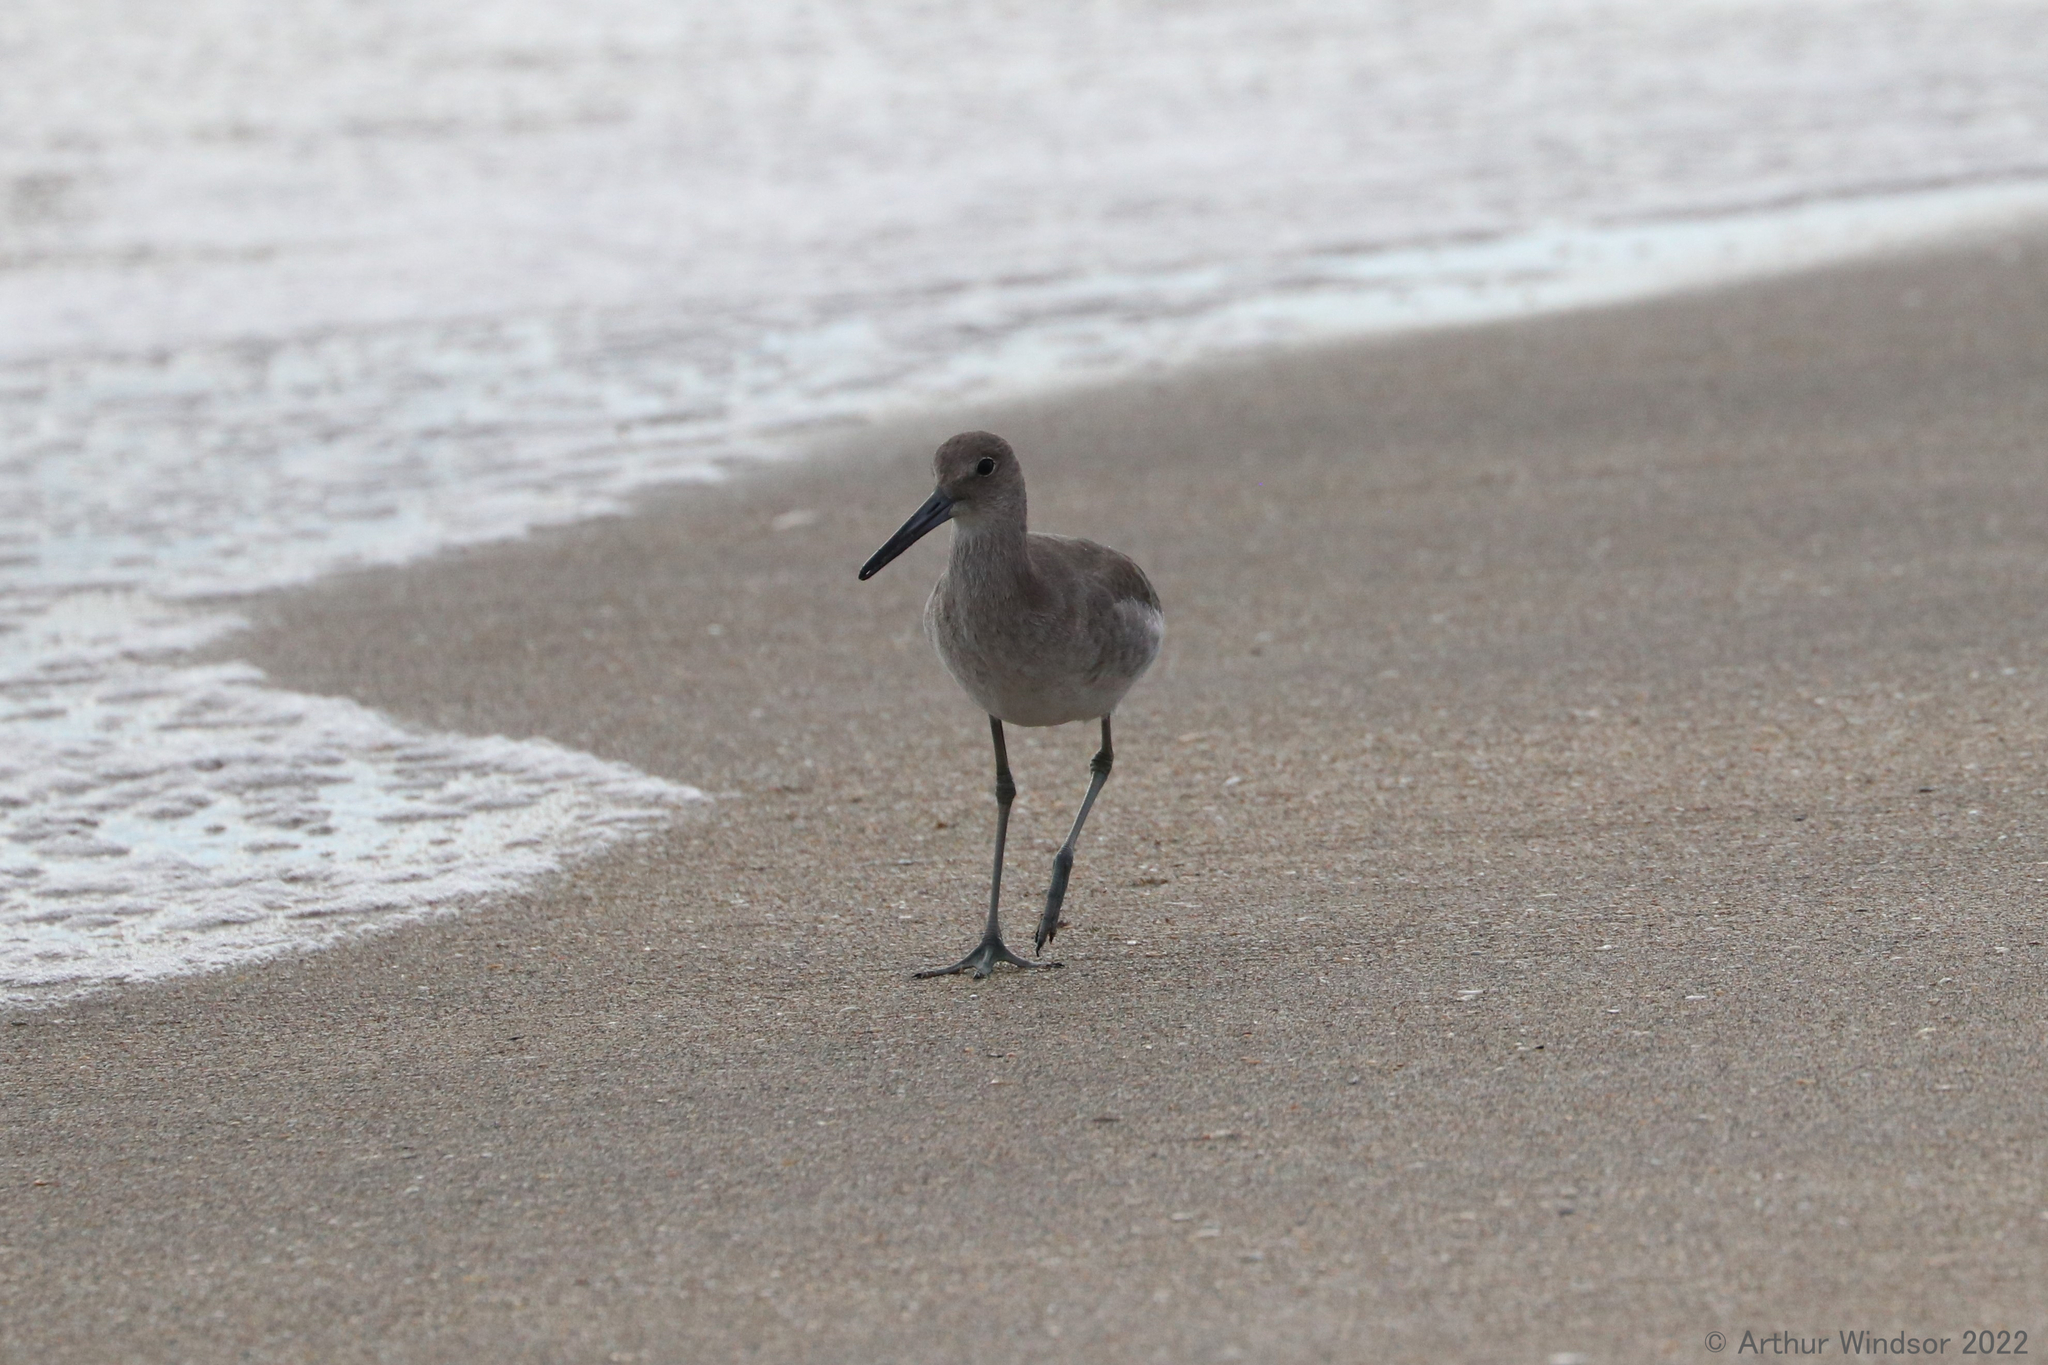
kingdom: Animalia
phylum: Chordata
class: Aves
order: Charadriiformes
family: Scolopacidae
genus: Tringa
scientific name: Tringa semipalmata
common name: Willet
